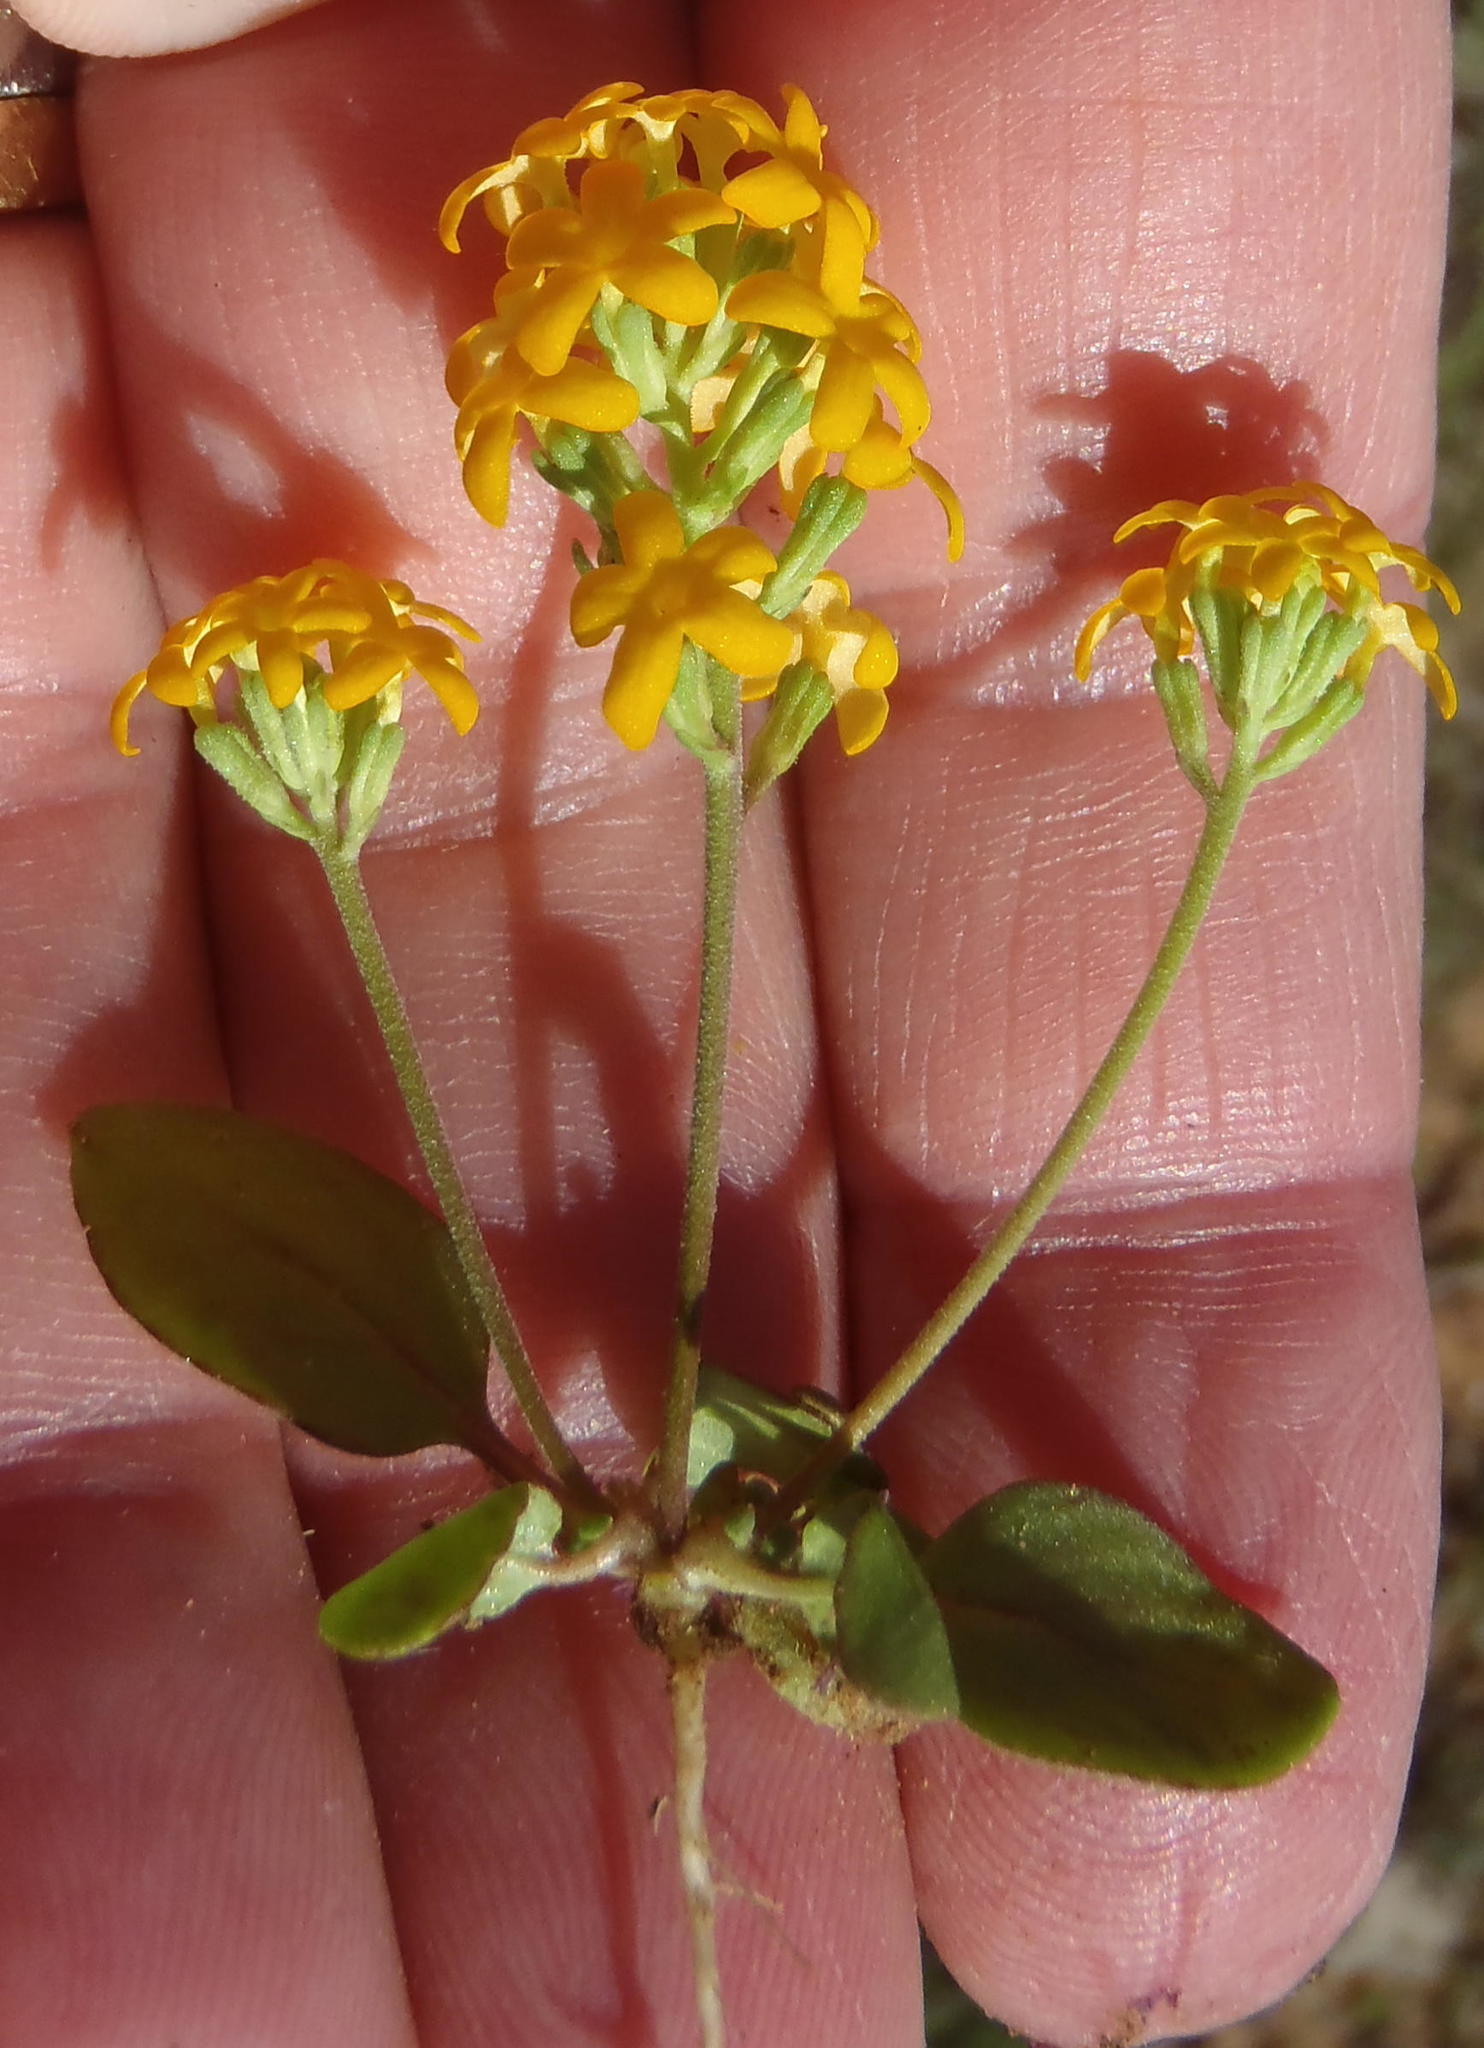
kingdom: Plantae
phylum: Tracheophyta
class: Magnoliopsida
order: Lamiales
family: Scrophulariaceae
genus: Manulea
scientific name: Manulea chrysantha
